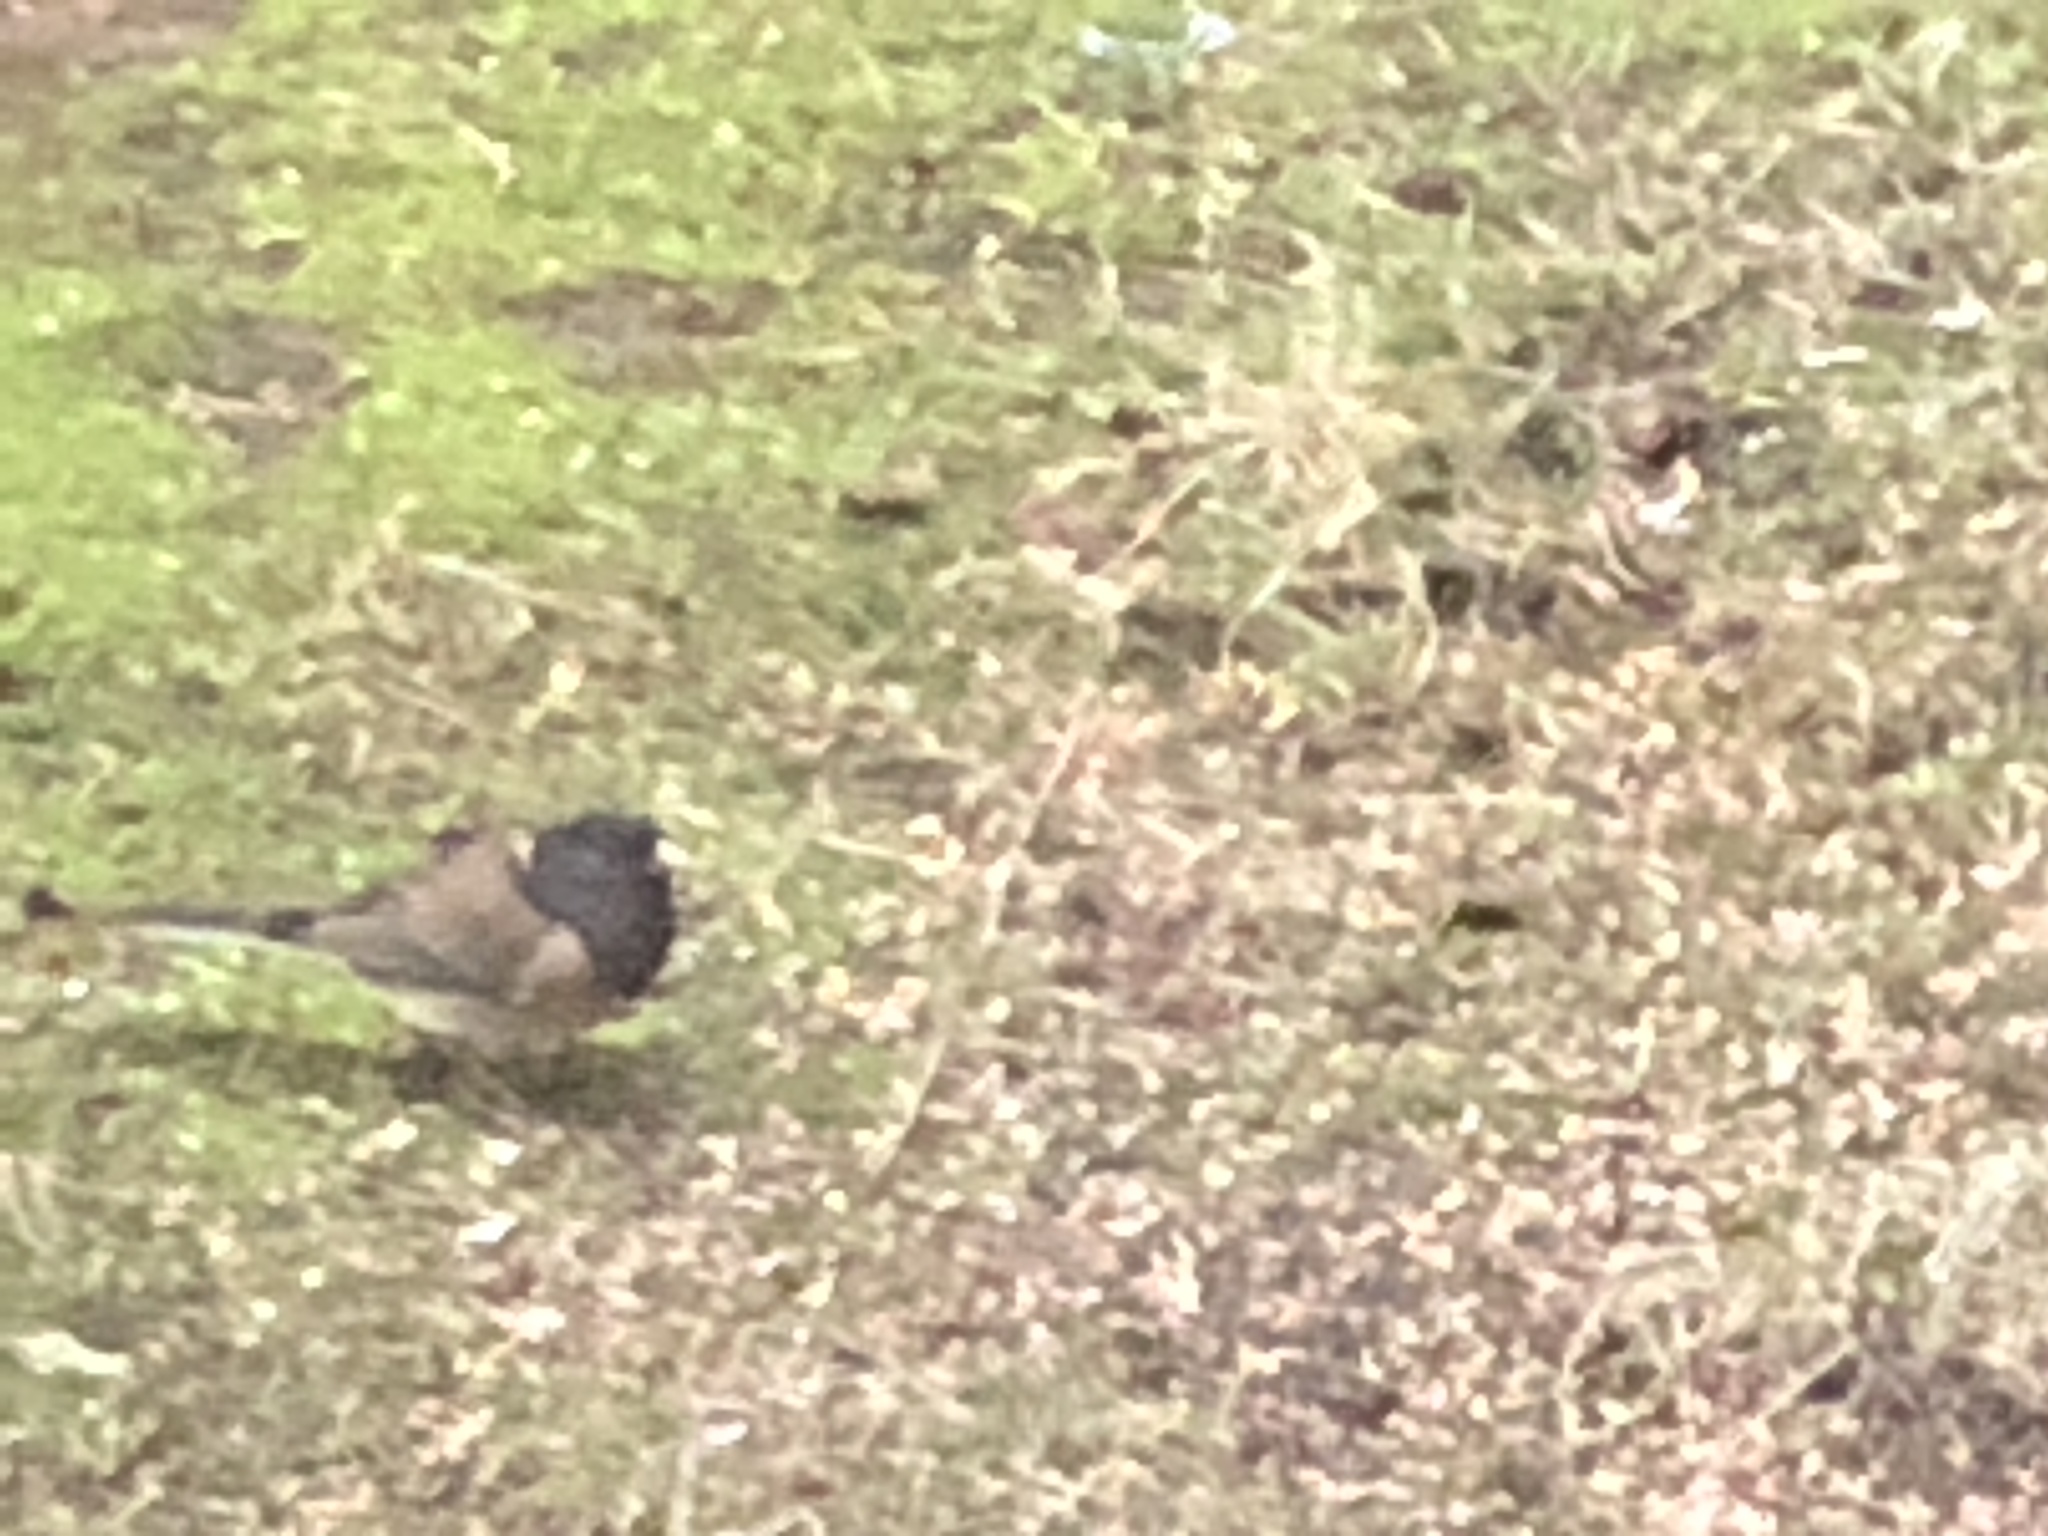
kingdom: Animalia
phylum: Chordata
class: Aves
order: Passeriformes
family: Turdidae
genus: Ixoreus
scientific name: Ixoreus naevius
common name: Varied thrush
